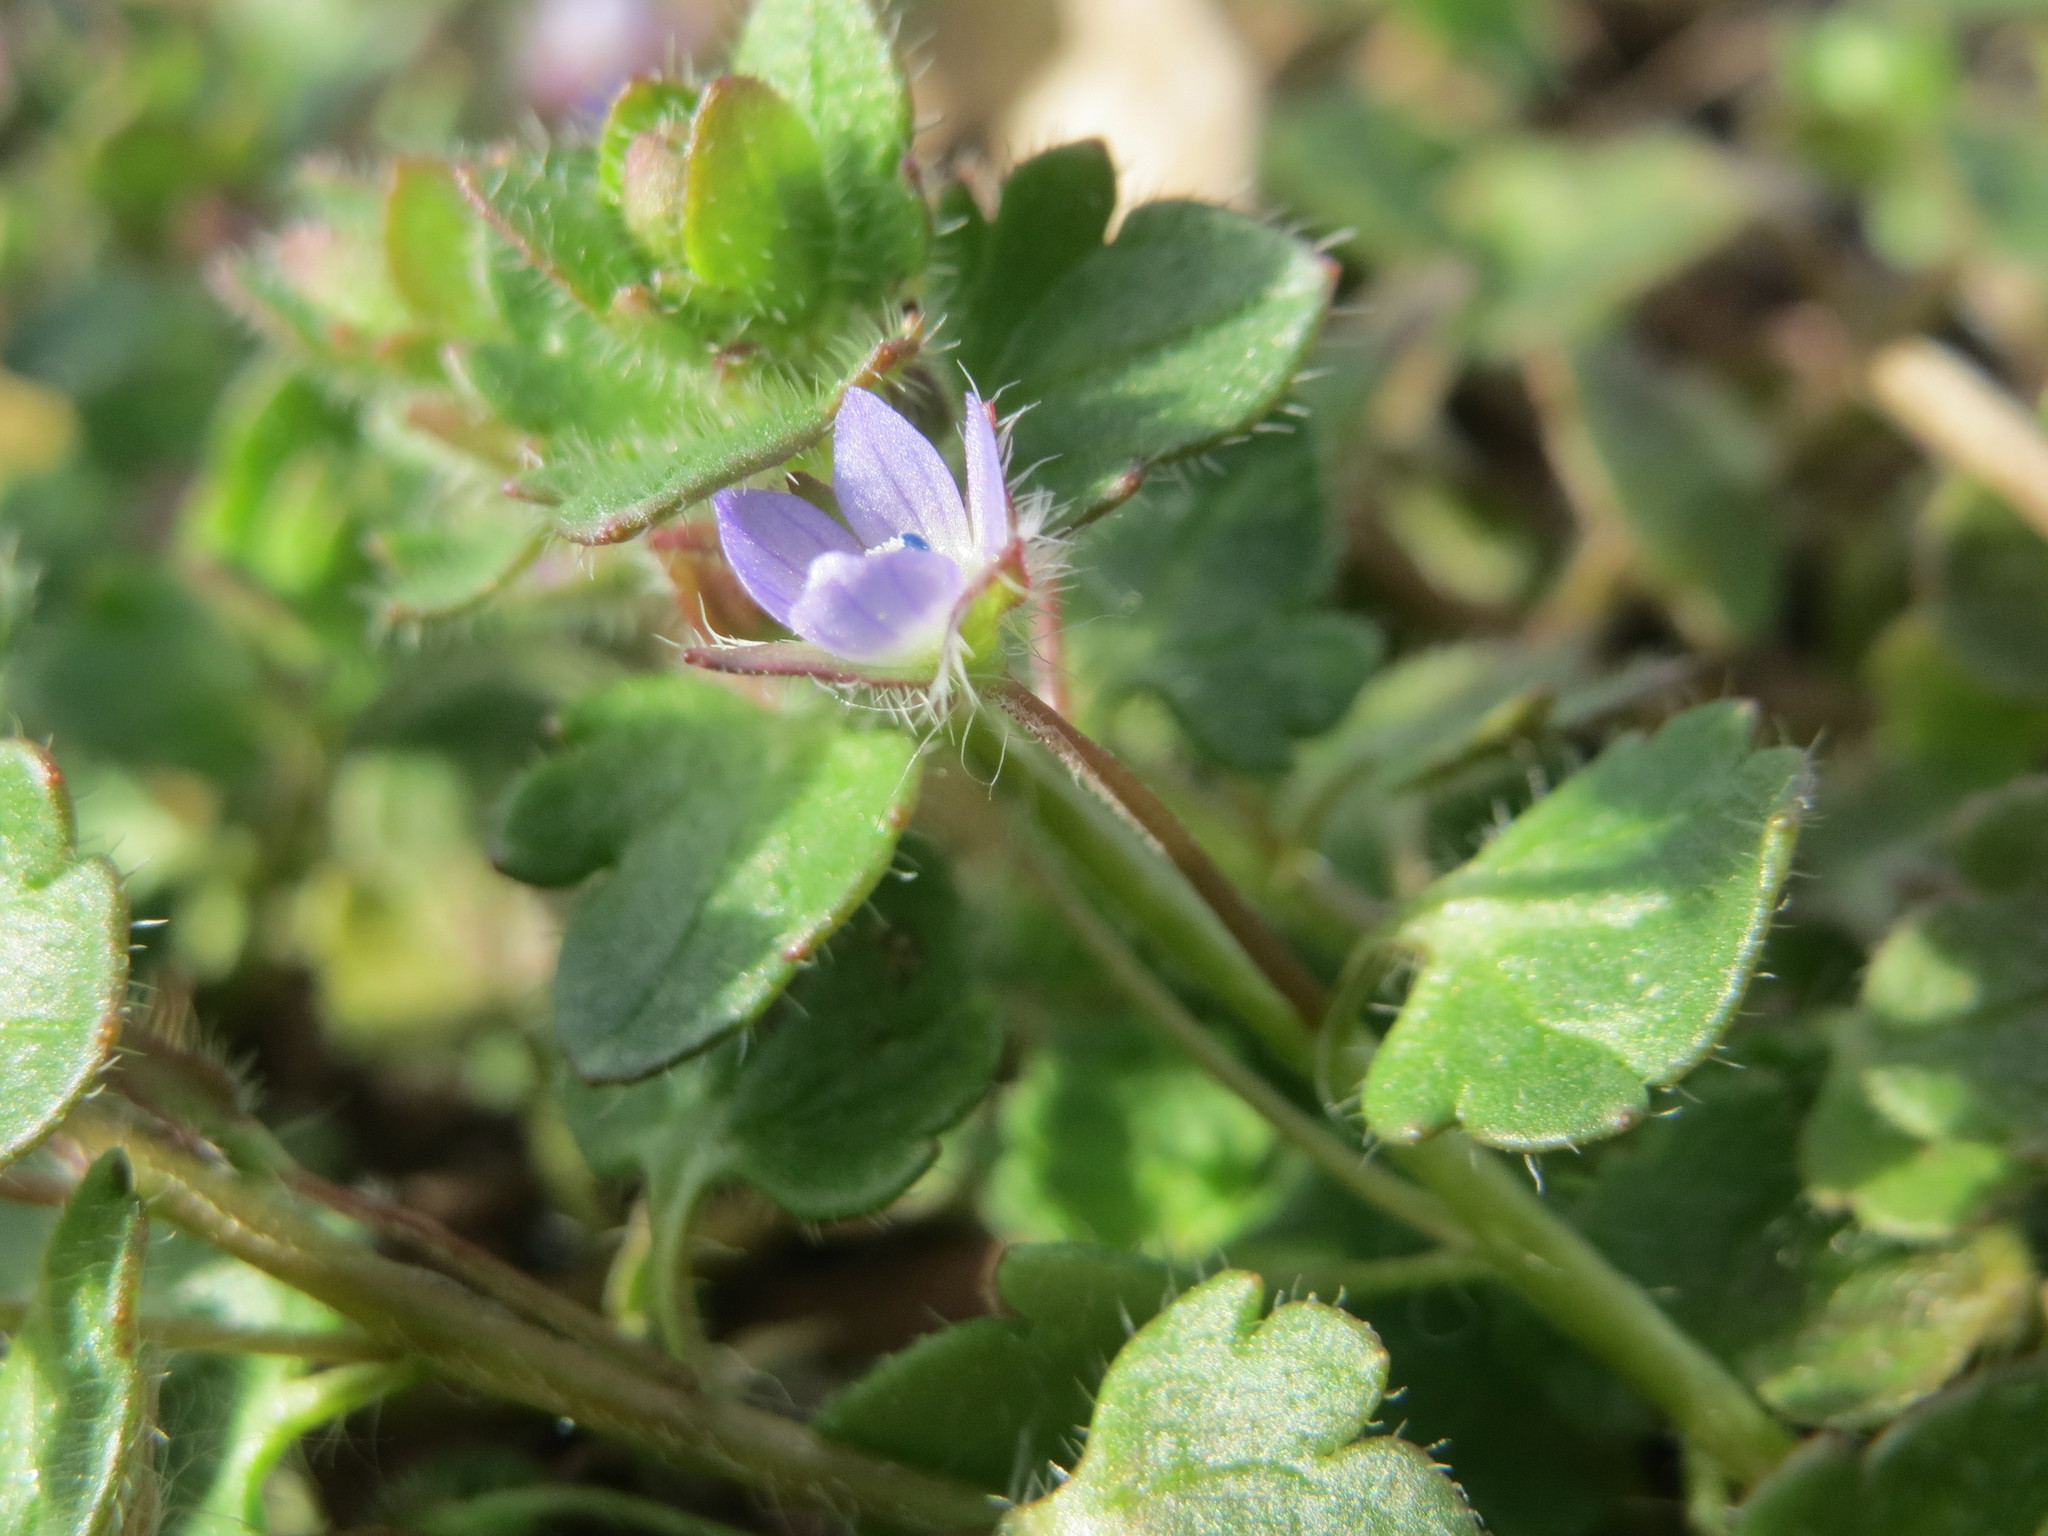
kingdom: Plantae
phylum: Tracheophyta
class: Magnoliopsida
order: Lamiales
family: Plantaginaceae
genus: Veronica
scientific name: Veronica hederifolia
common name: Ivy-leaved speedwell
